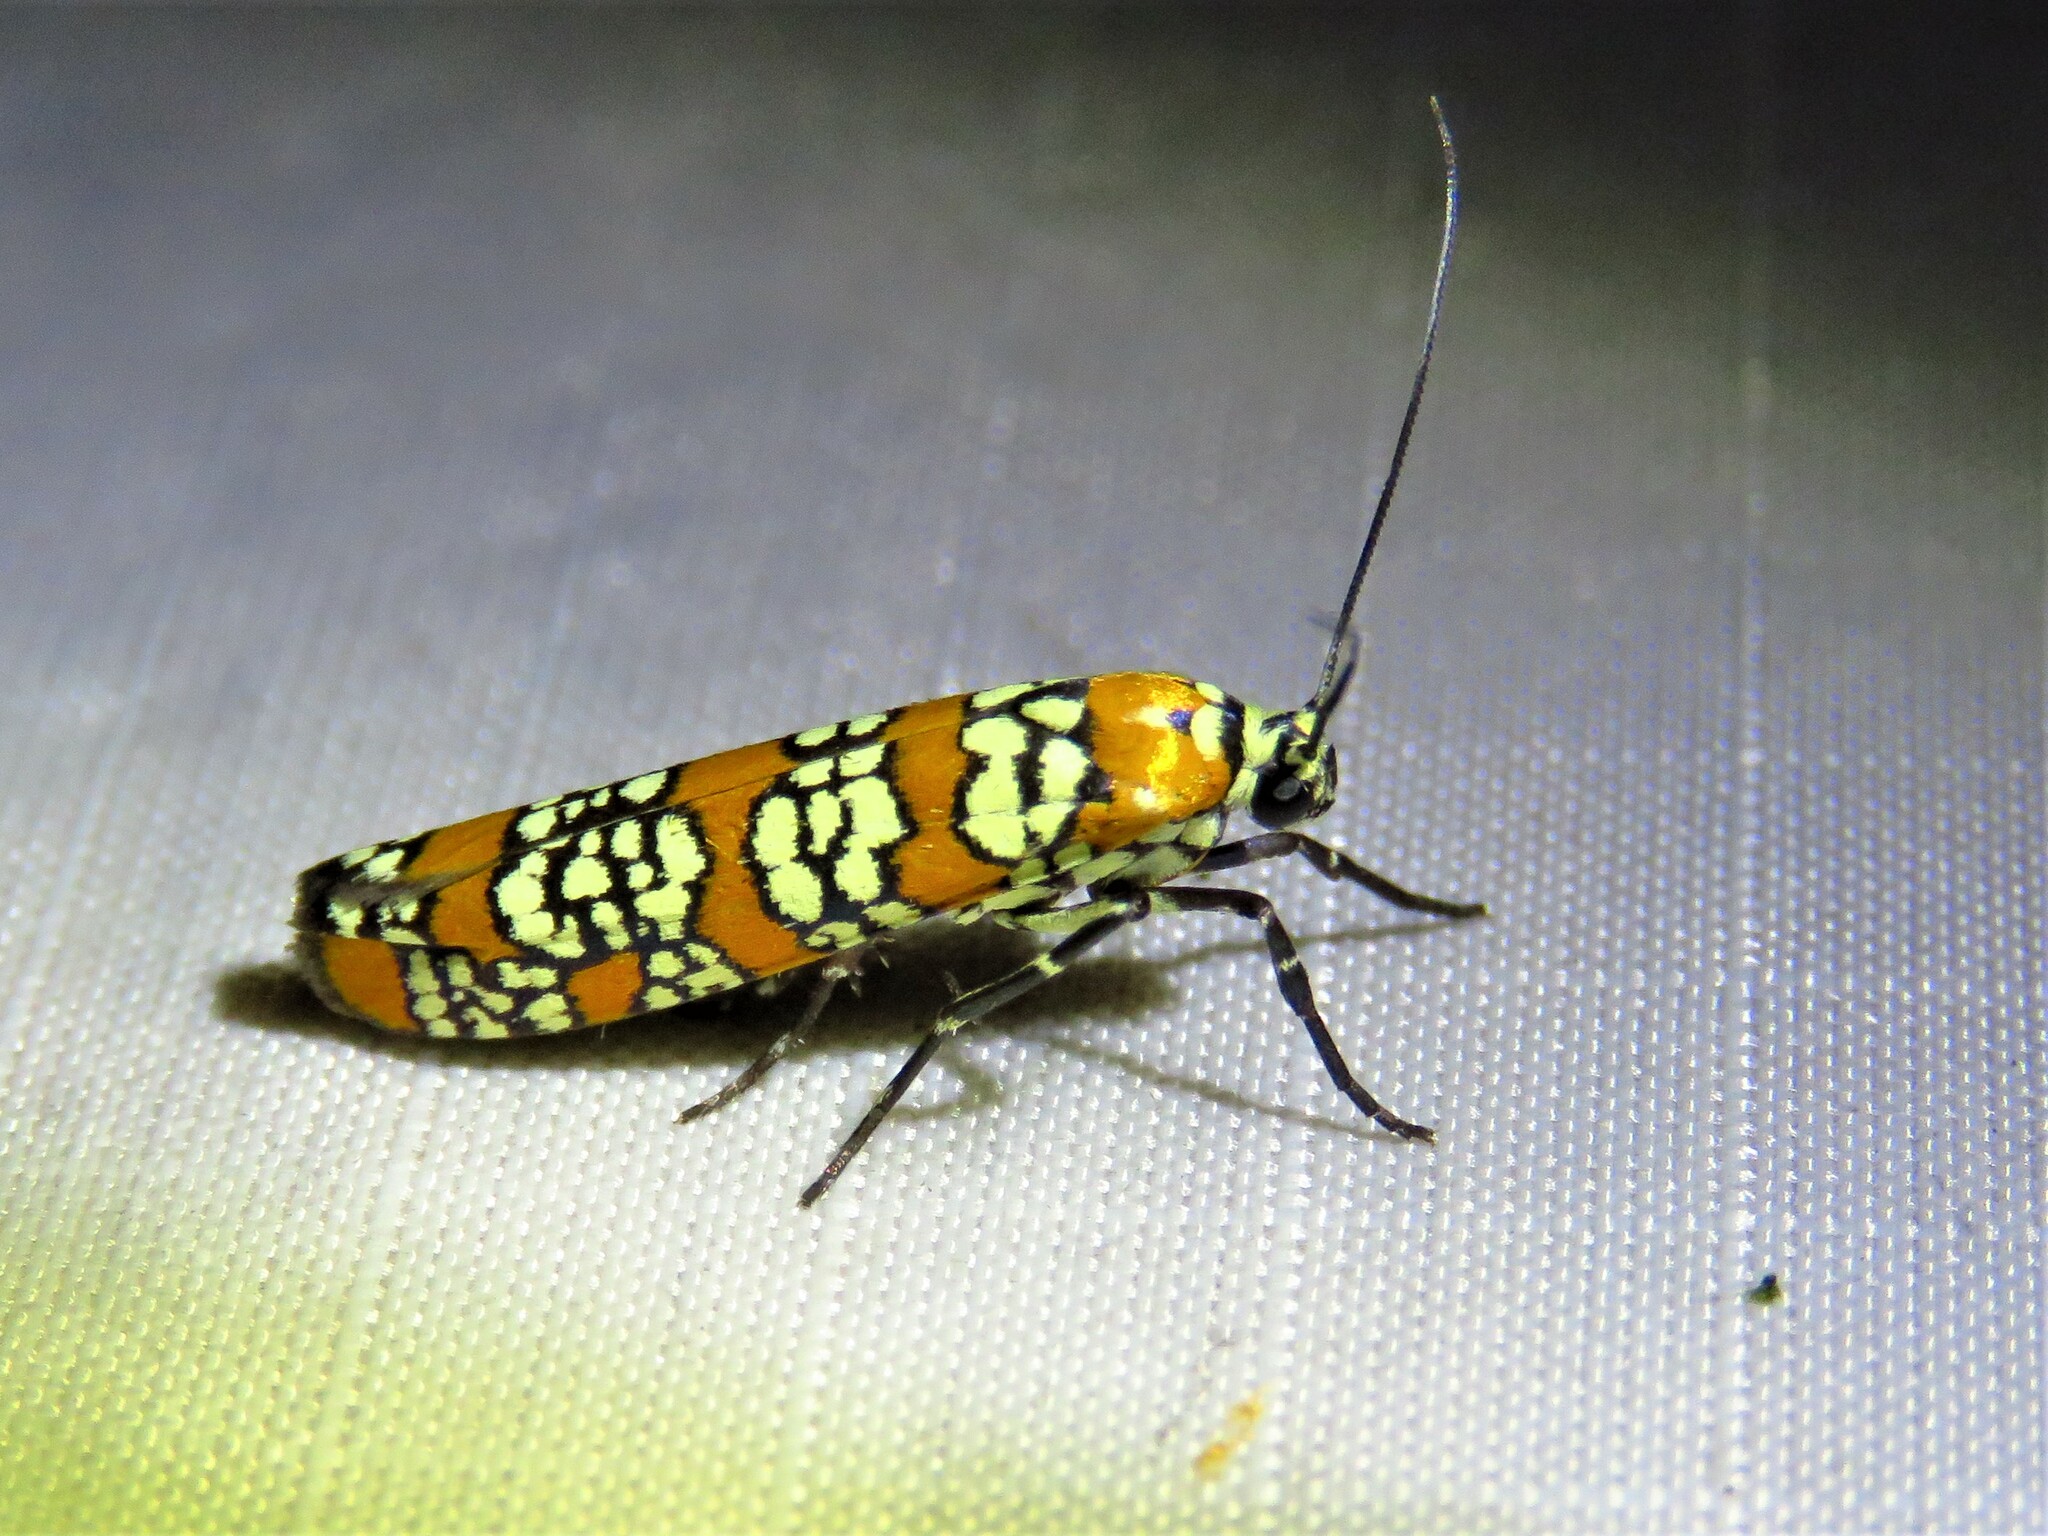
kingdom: Animalia
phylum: Arthropoda
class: Insecta
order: Lepidoptera
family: Attevidae
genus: Atteva
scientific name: Atteva punctella
